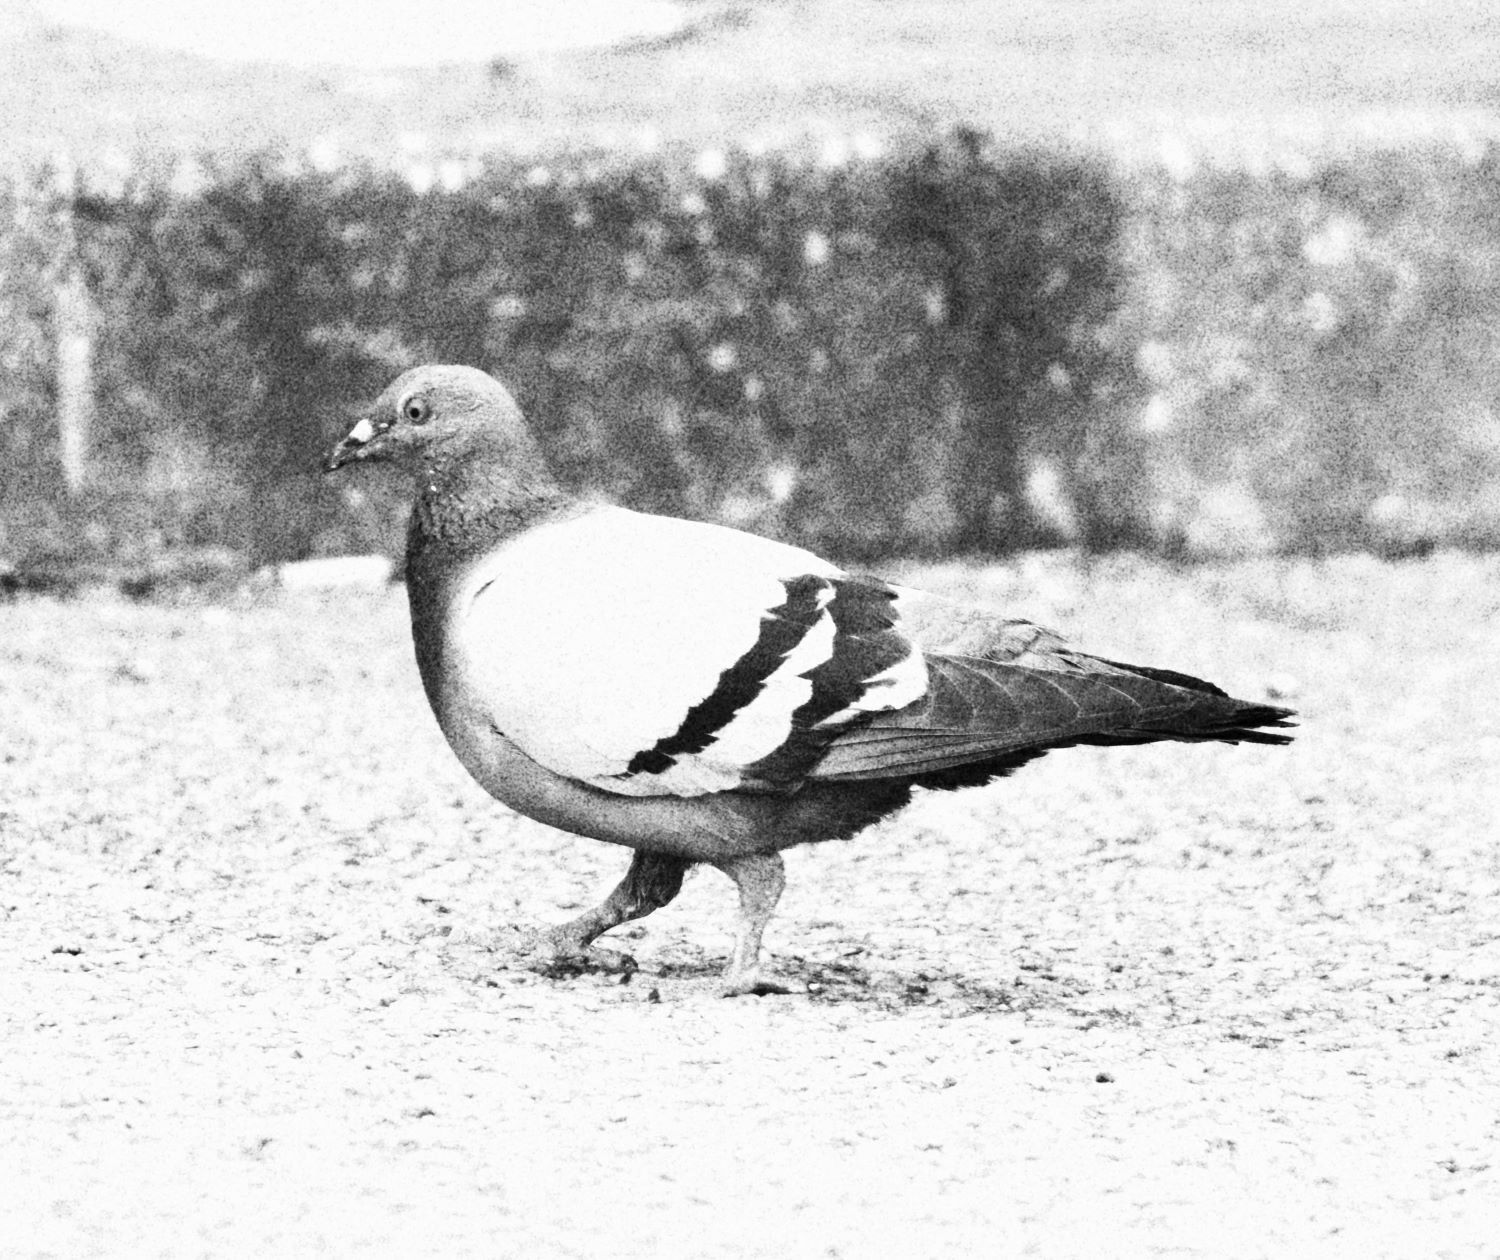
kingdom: Animalia
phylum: Chordata
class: Aves
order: Columbiformes
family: Columbidae
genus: Columba
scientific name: Columba livia
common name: Rock pigeon
